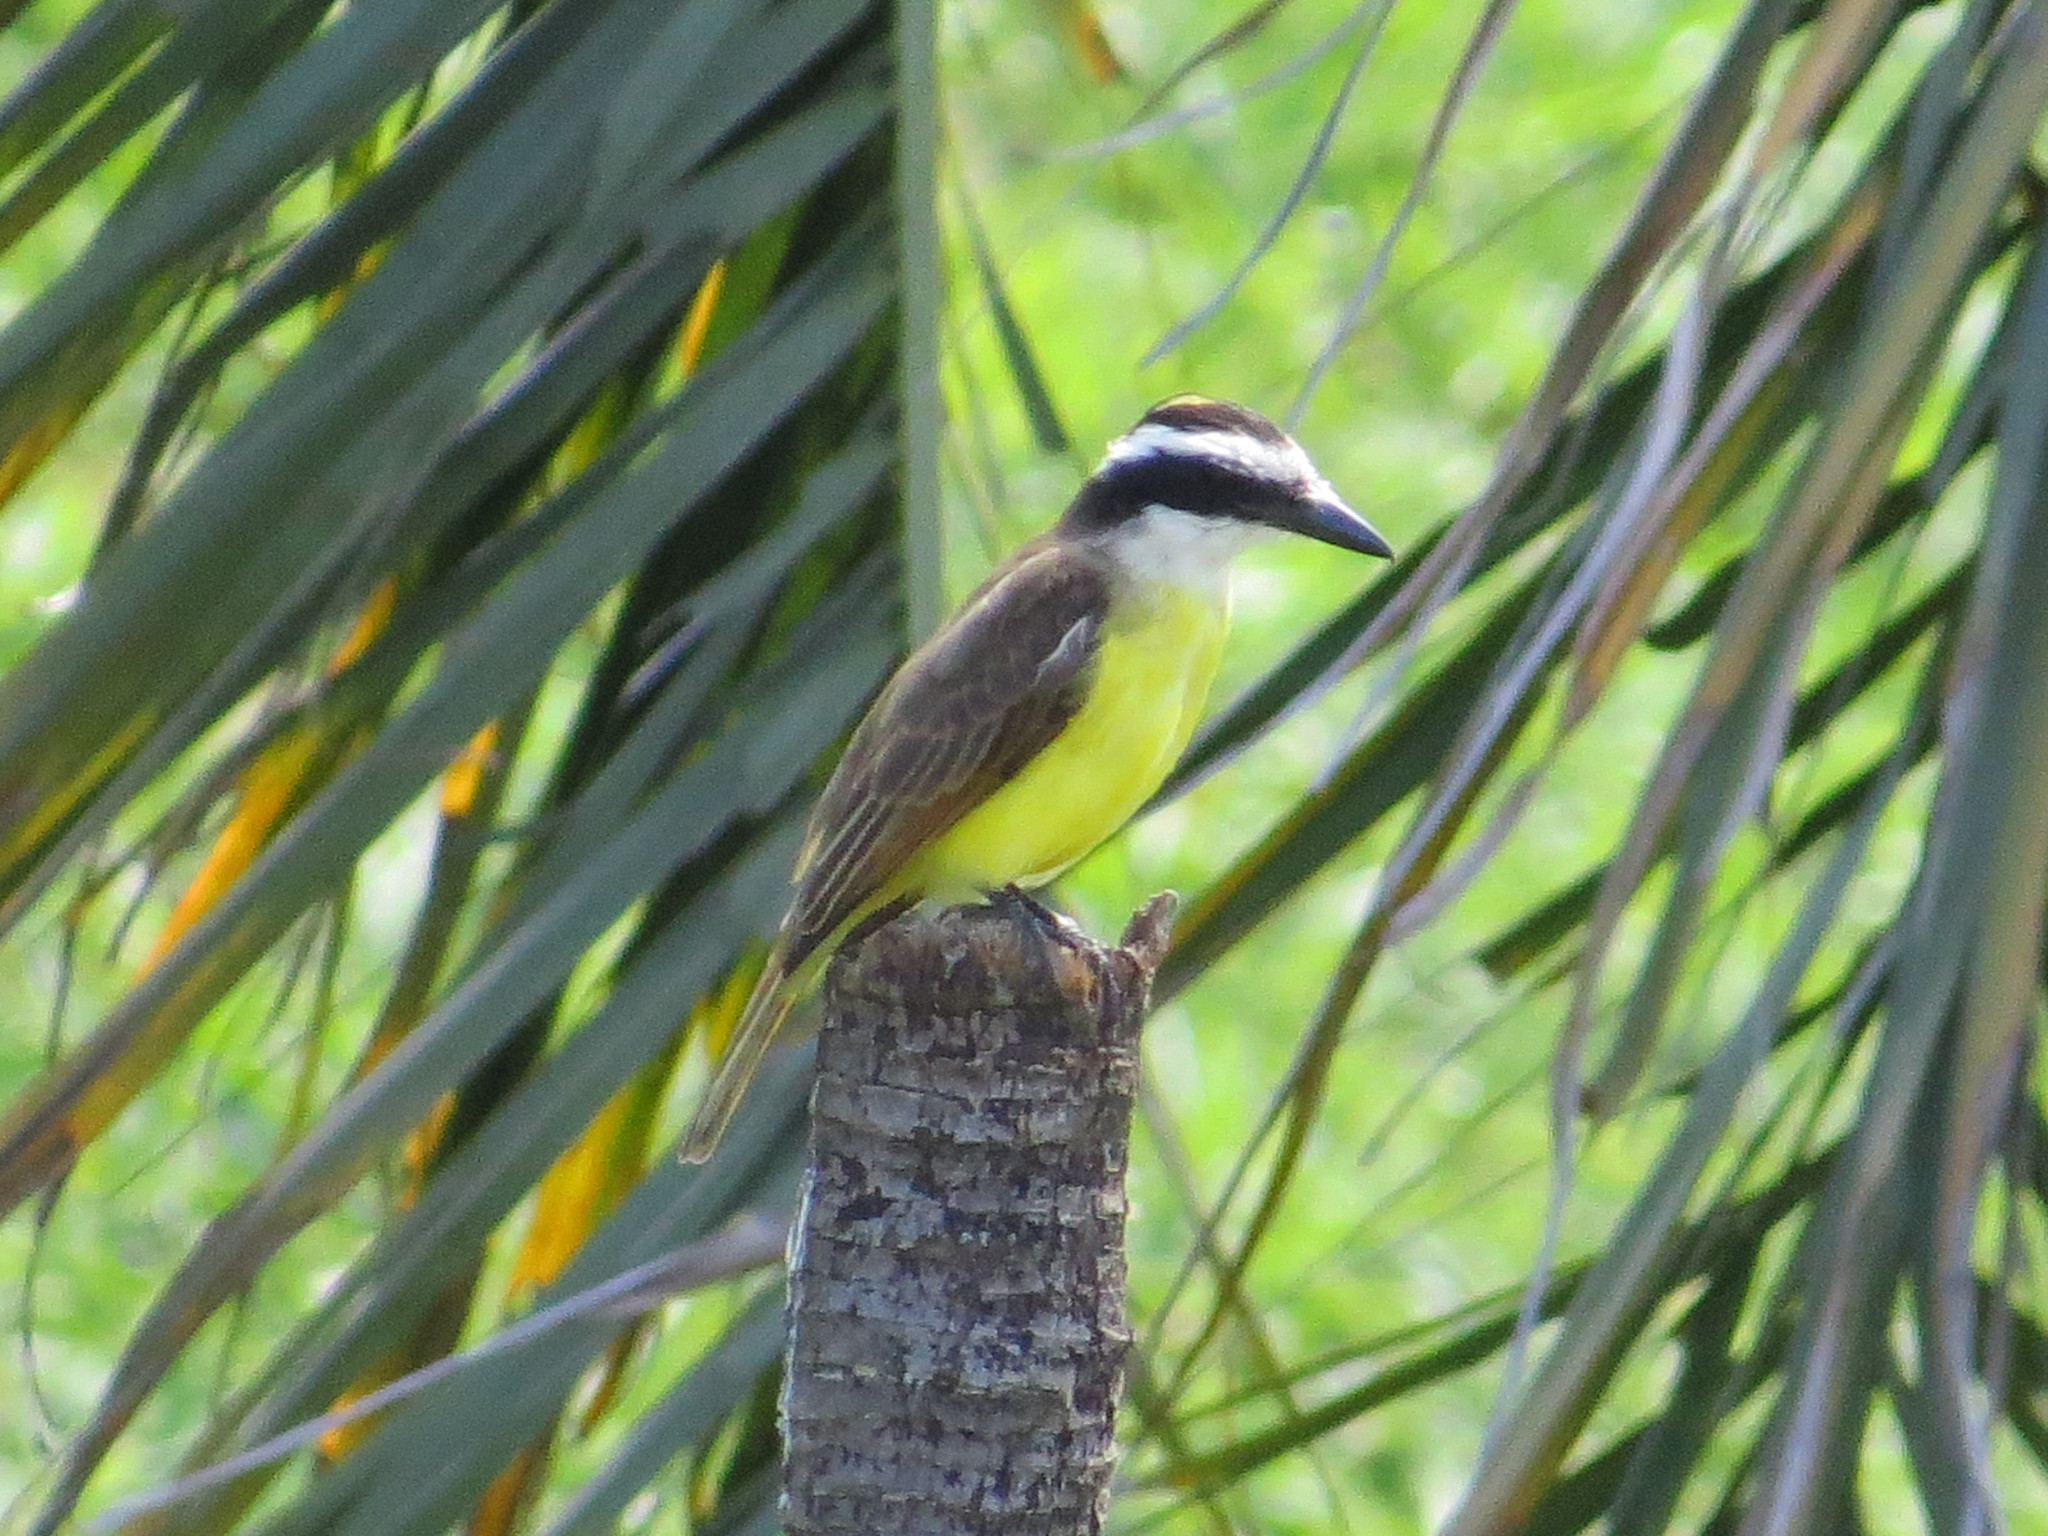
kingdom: Animalia
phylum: Chordata
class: Aves
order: Passeriformes
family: Tyrannidae
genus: Pitangus
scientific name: Pitangus sulphuratus
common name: Great kiskadee
